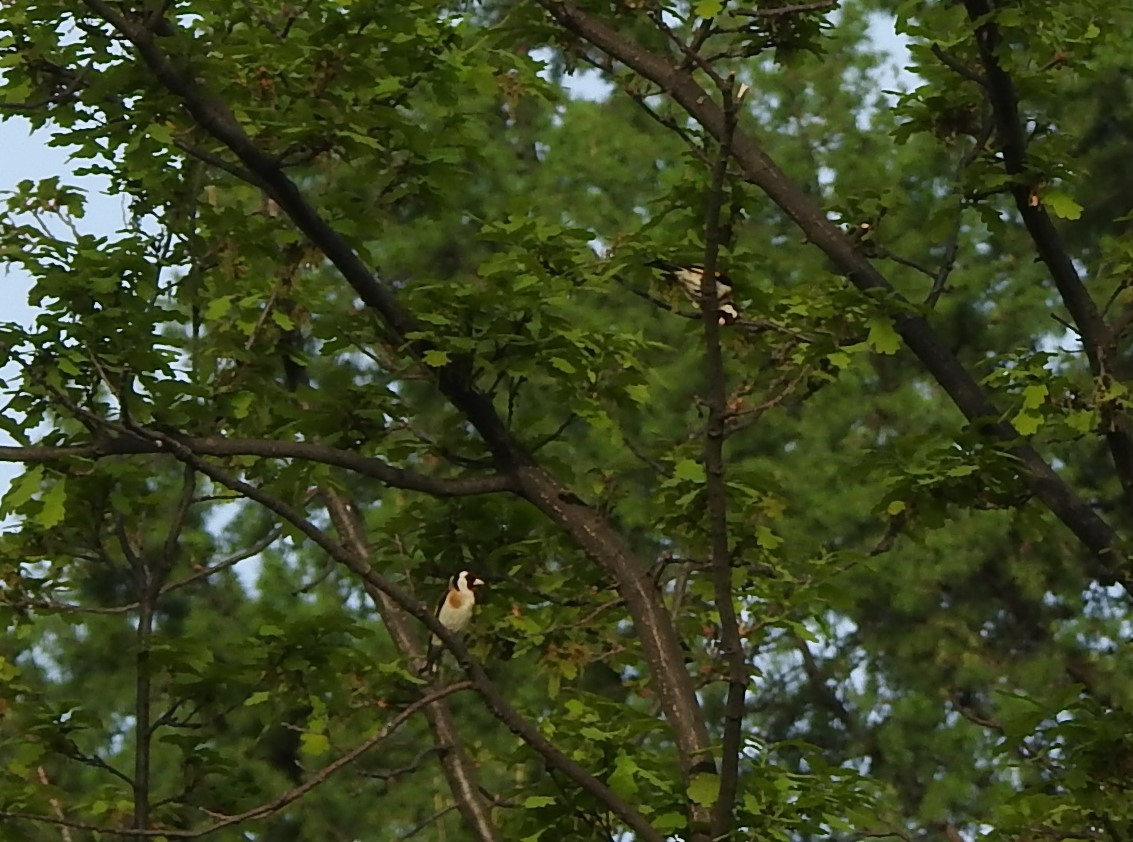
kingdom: Animalia
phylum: Chordata
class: Aves
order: Passeriformes
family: Fringillidae
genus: Carduelis
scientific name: Carduelis carduelis
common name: European goldfinch
